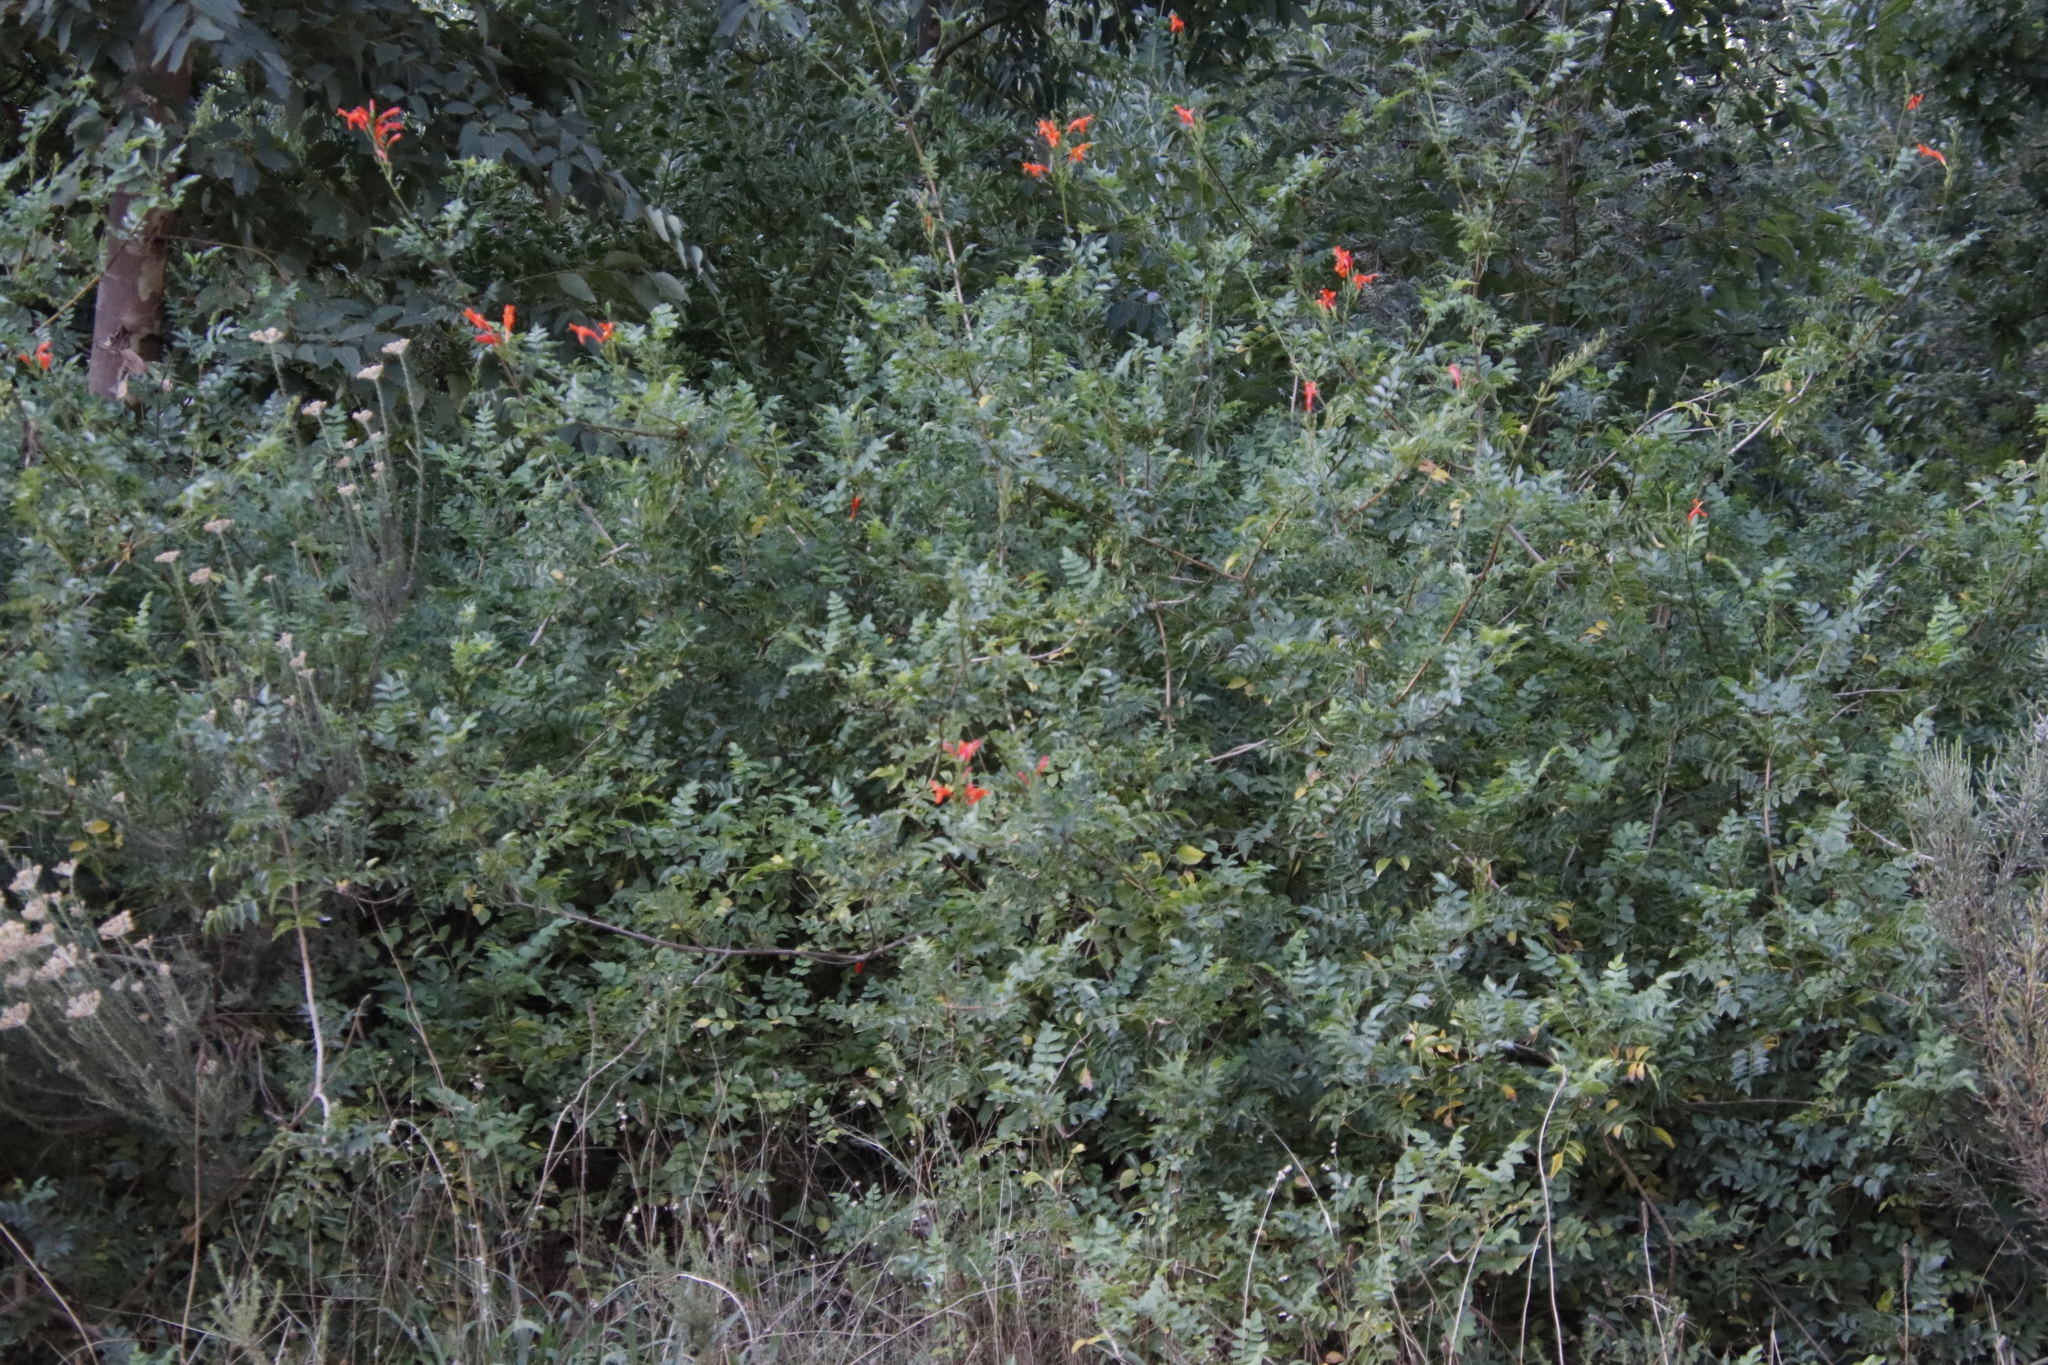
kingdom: Plantae
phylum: Tracheophyta
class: Magnoliopsida
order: Lamiales
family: Bignoniaceae
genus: Tecomaria
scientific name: Tecomaria capensis
